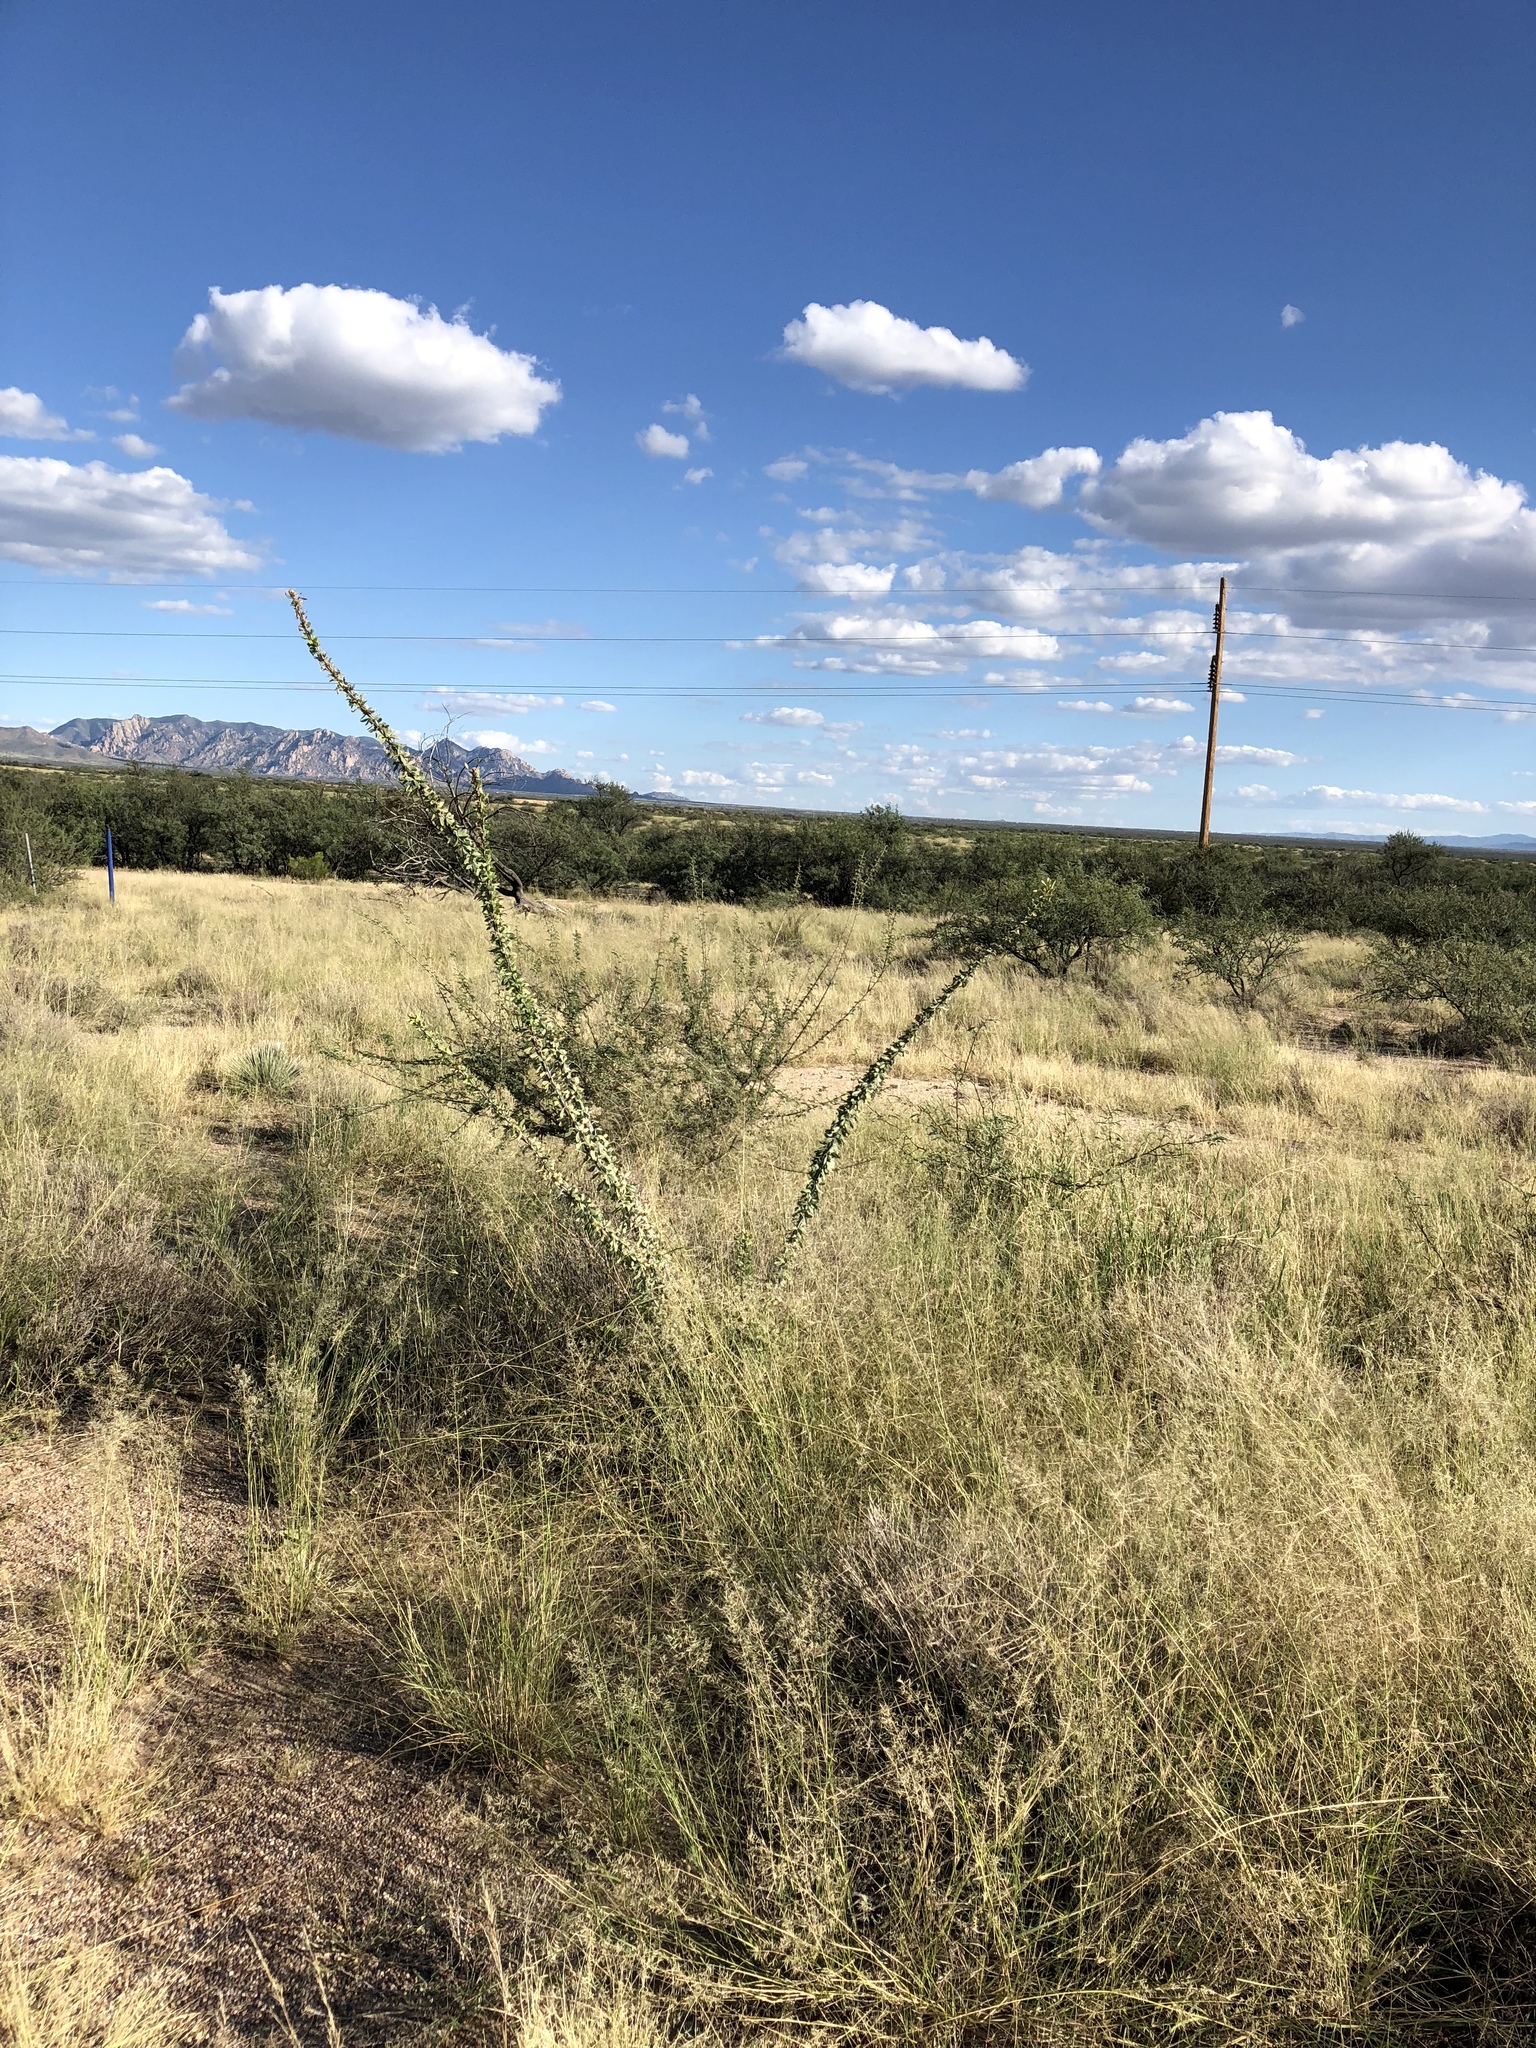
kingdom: Plantae
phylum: Tracheophyta
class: Magnoliopsida
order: Ericales
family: Fouquieriaceae
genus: Fouquieria
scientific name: Fouquieria splendens
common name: Vine-cactus
